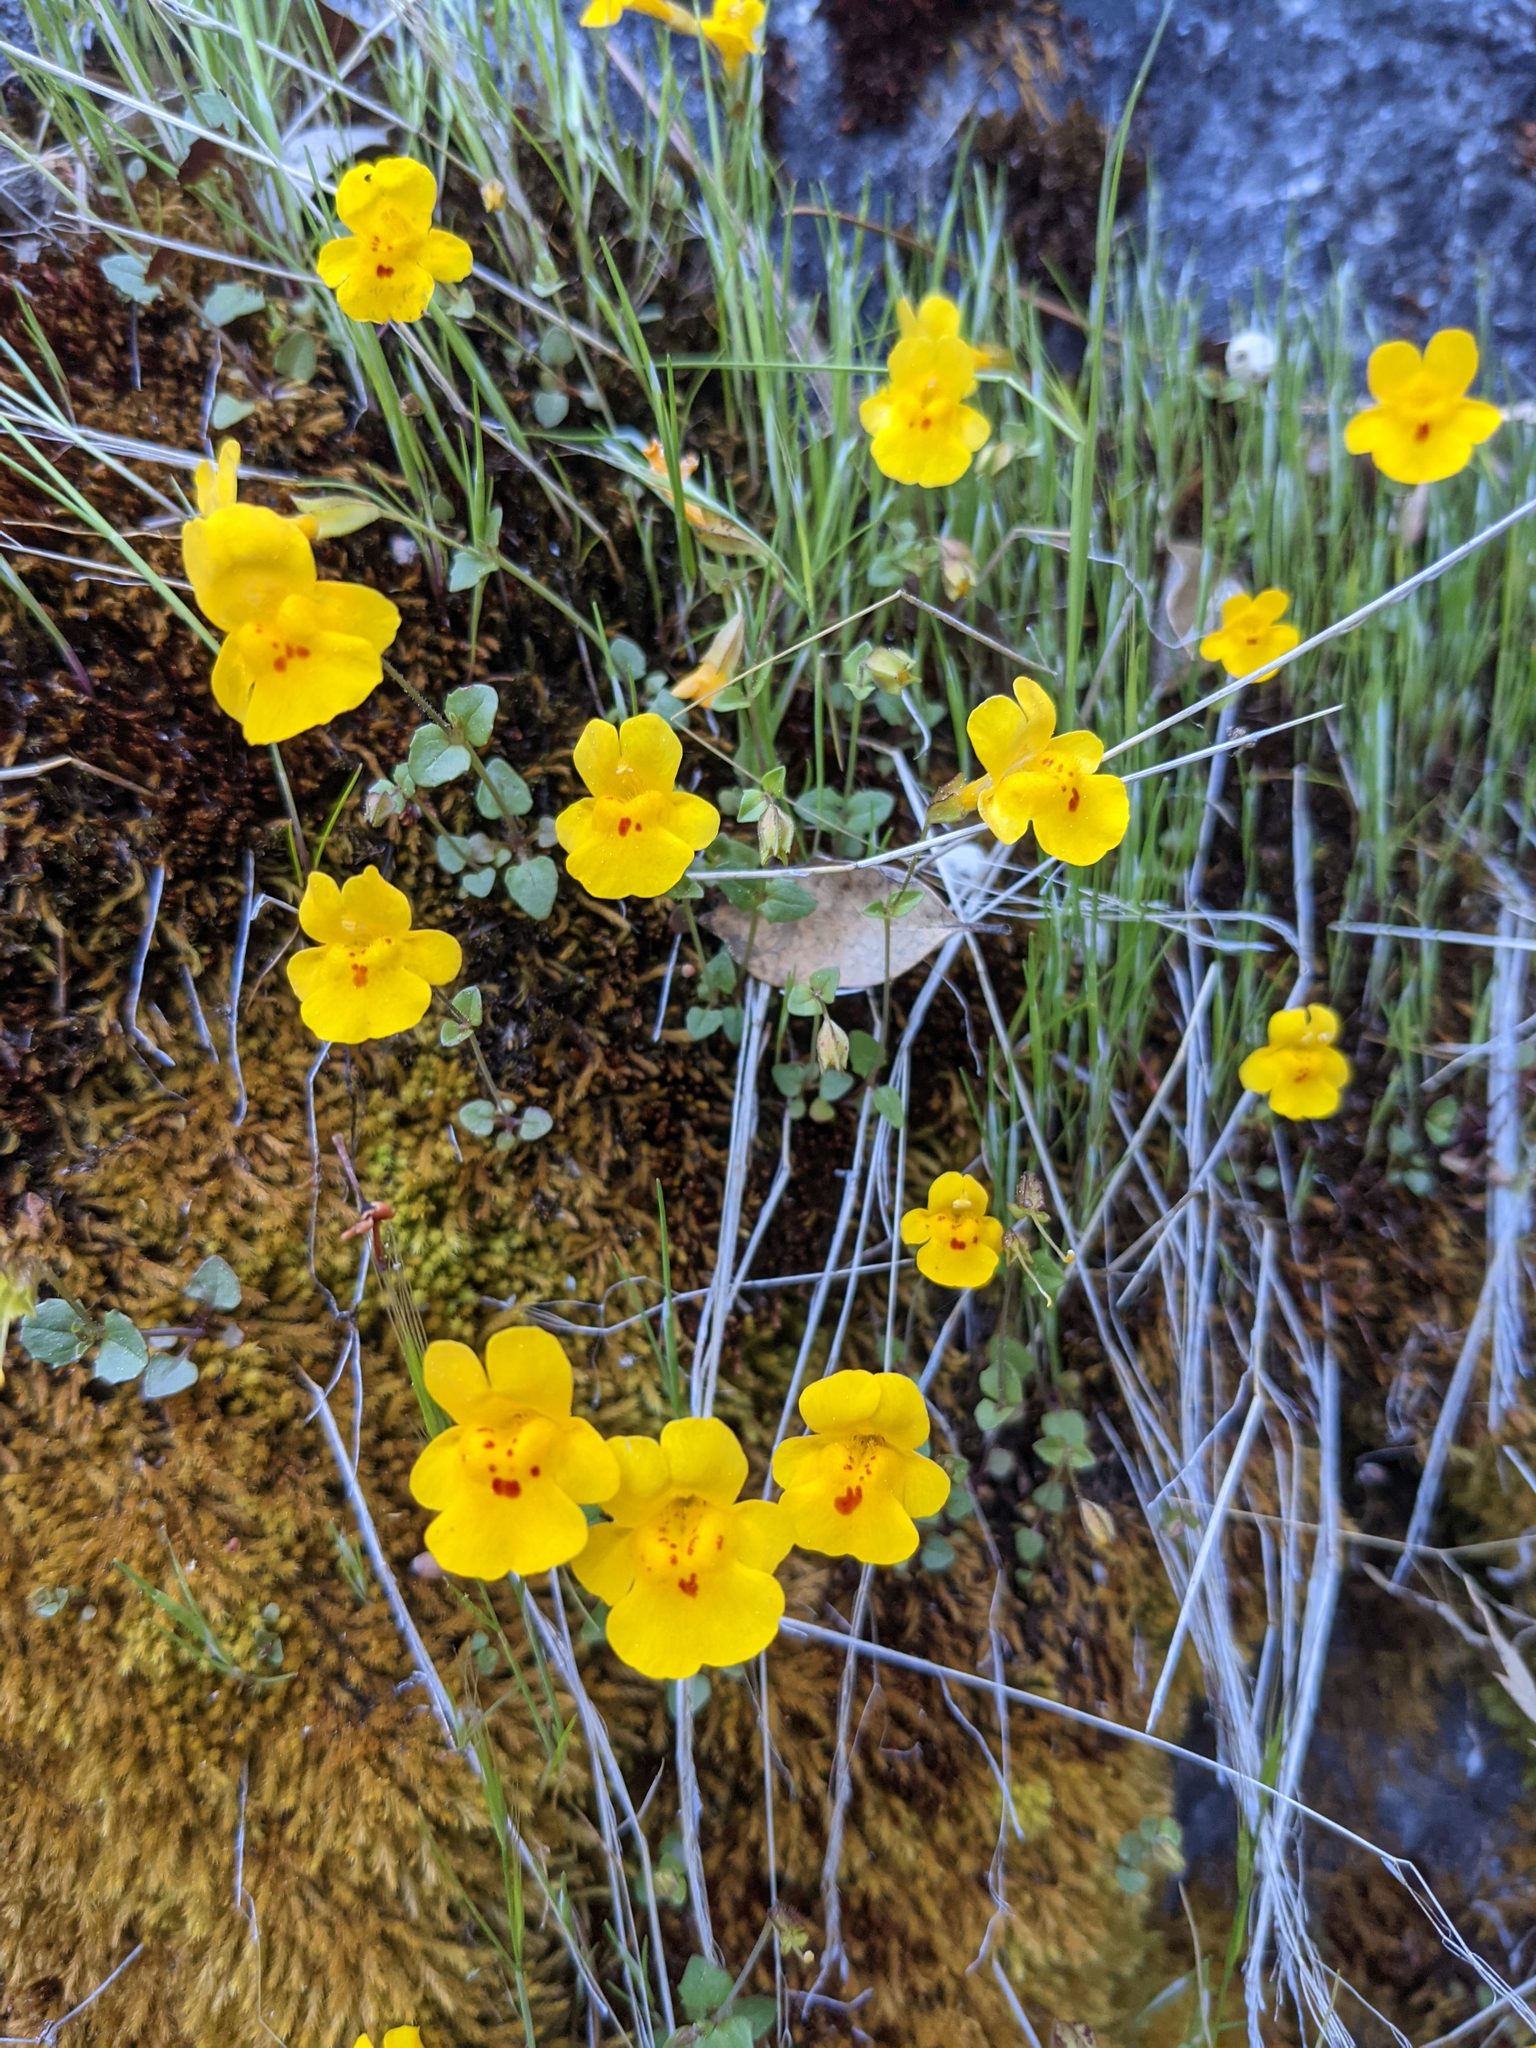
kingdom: Plantae
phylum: Tracheophyta
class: Magnoliopsida
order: Lamiales
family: Phrymaceae
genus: Erythranthe
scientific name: Erythranthe microphylla
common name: Bentham's monkeyflower
